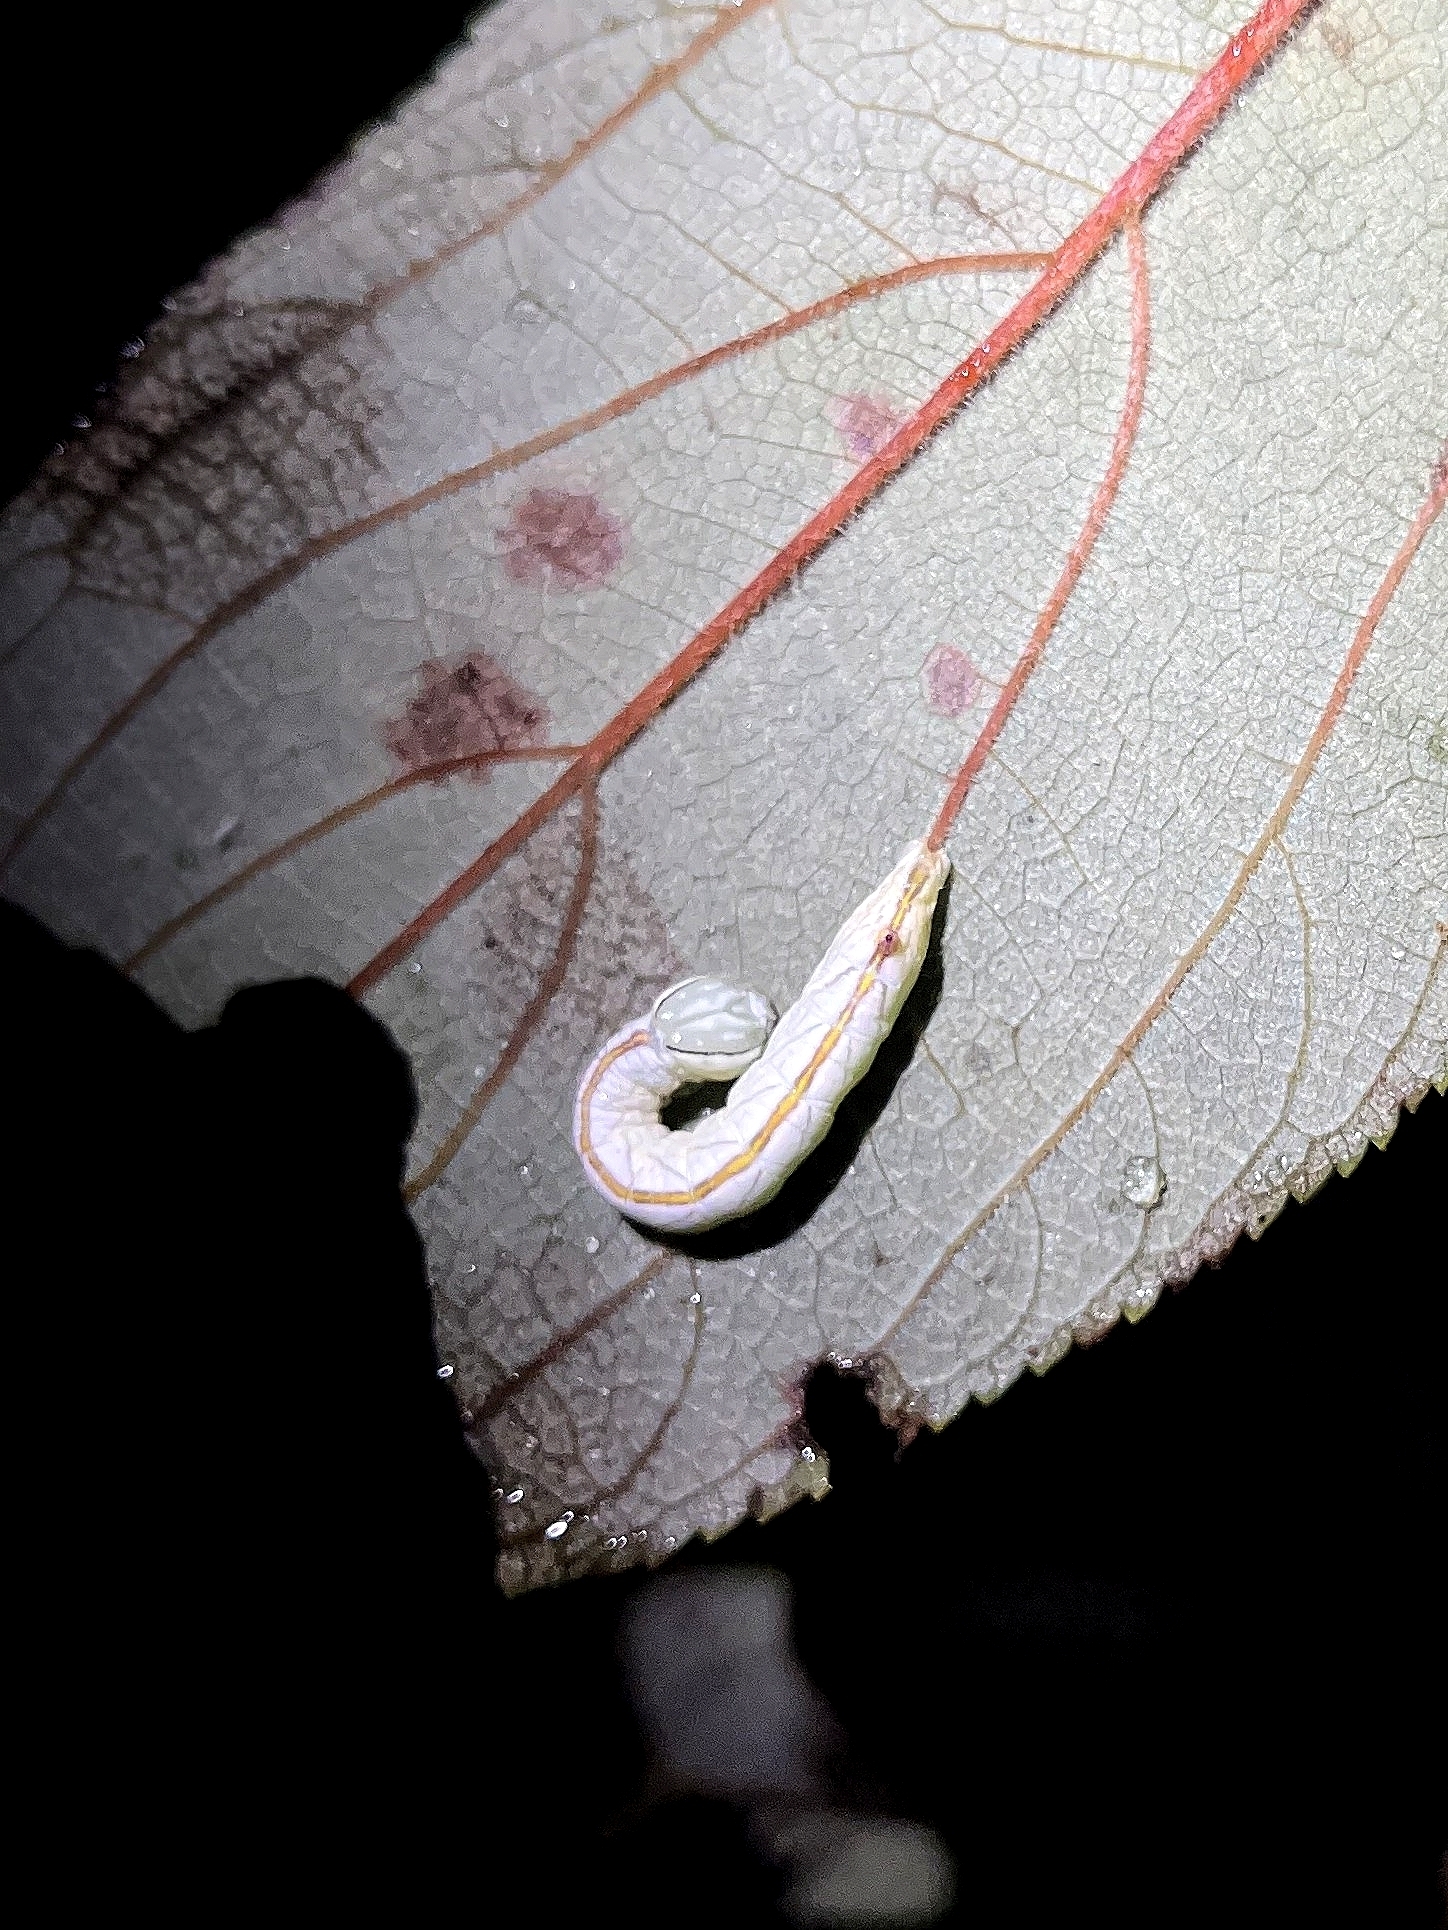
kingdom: Animalia
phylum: Arthropoda
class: Insecta
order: Lepidoptera
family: Notodontidae
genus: Chadisra
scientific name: Chadisra bipars
